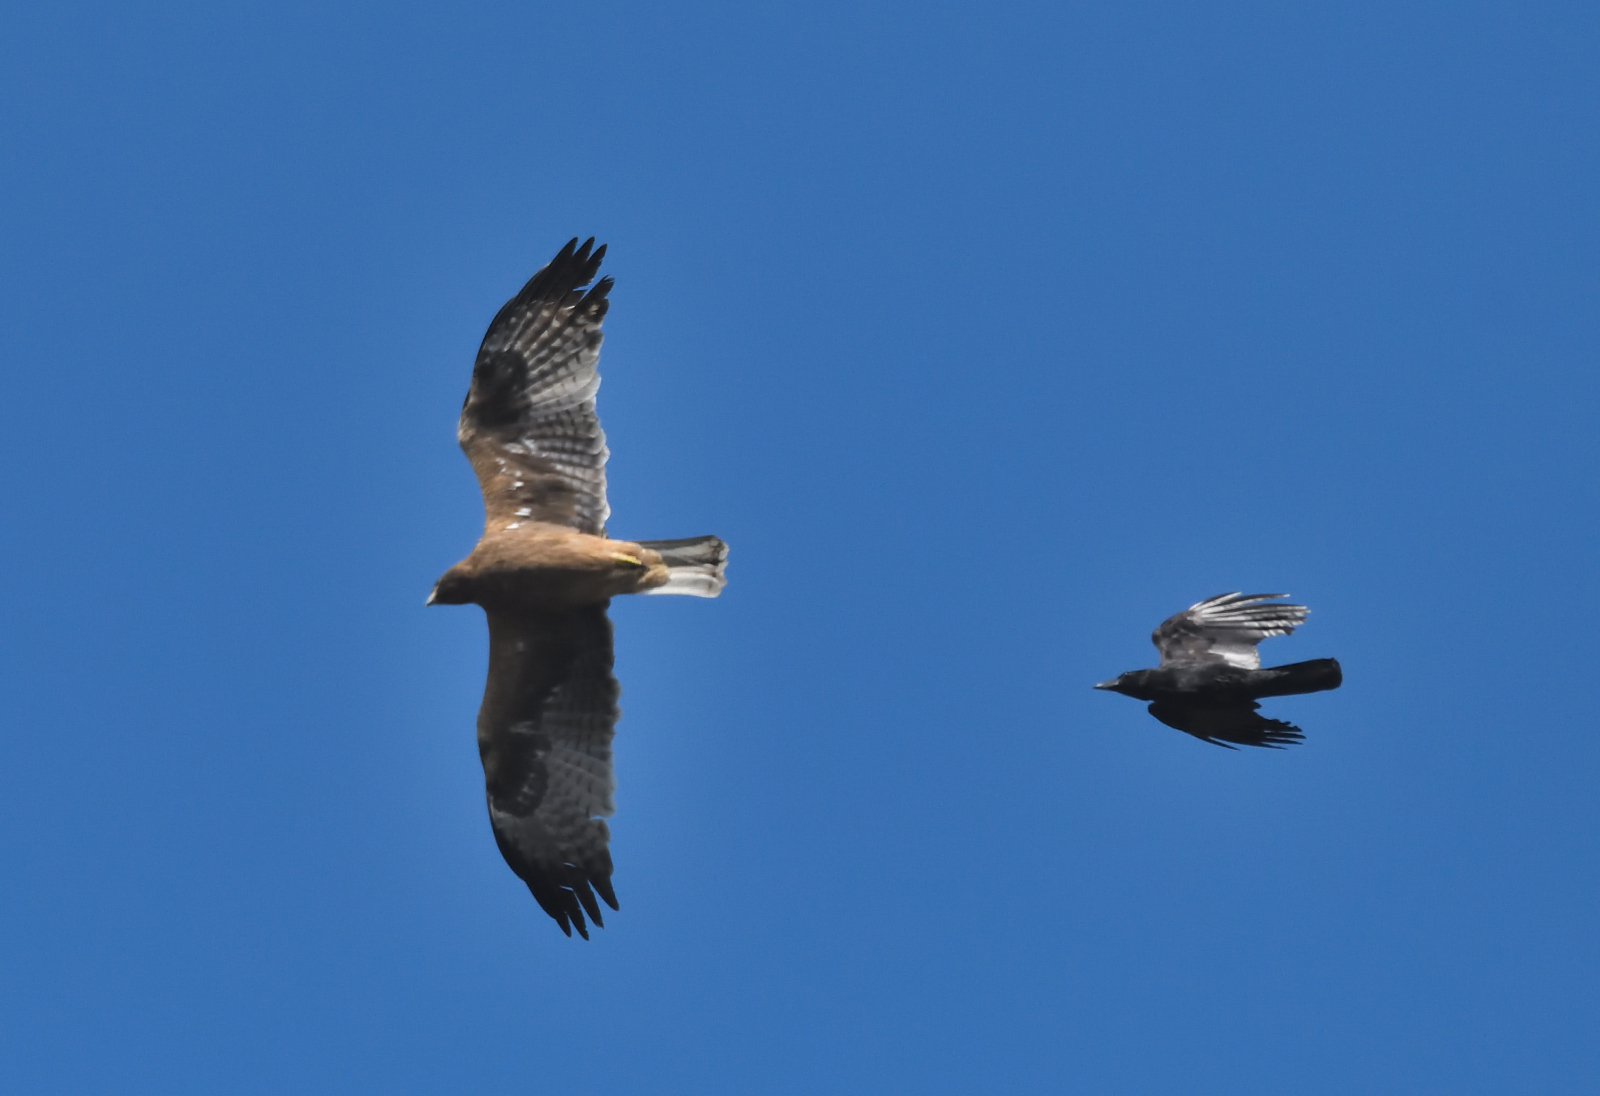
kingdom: Animalia
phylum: Chordata
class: Aves
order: Accipitriformes
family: Accipitridae
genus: Hieraaetus
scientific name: Hieraaetus pennatus
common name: Booted eagle
